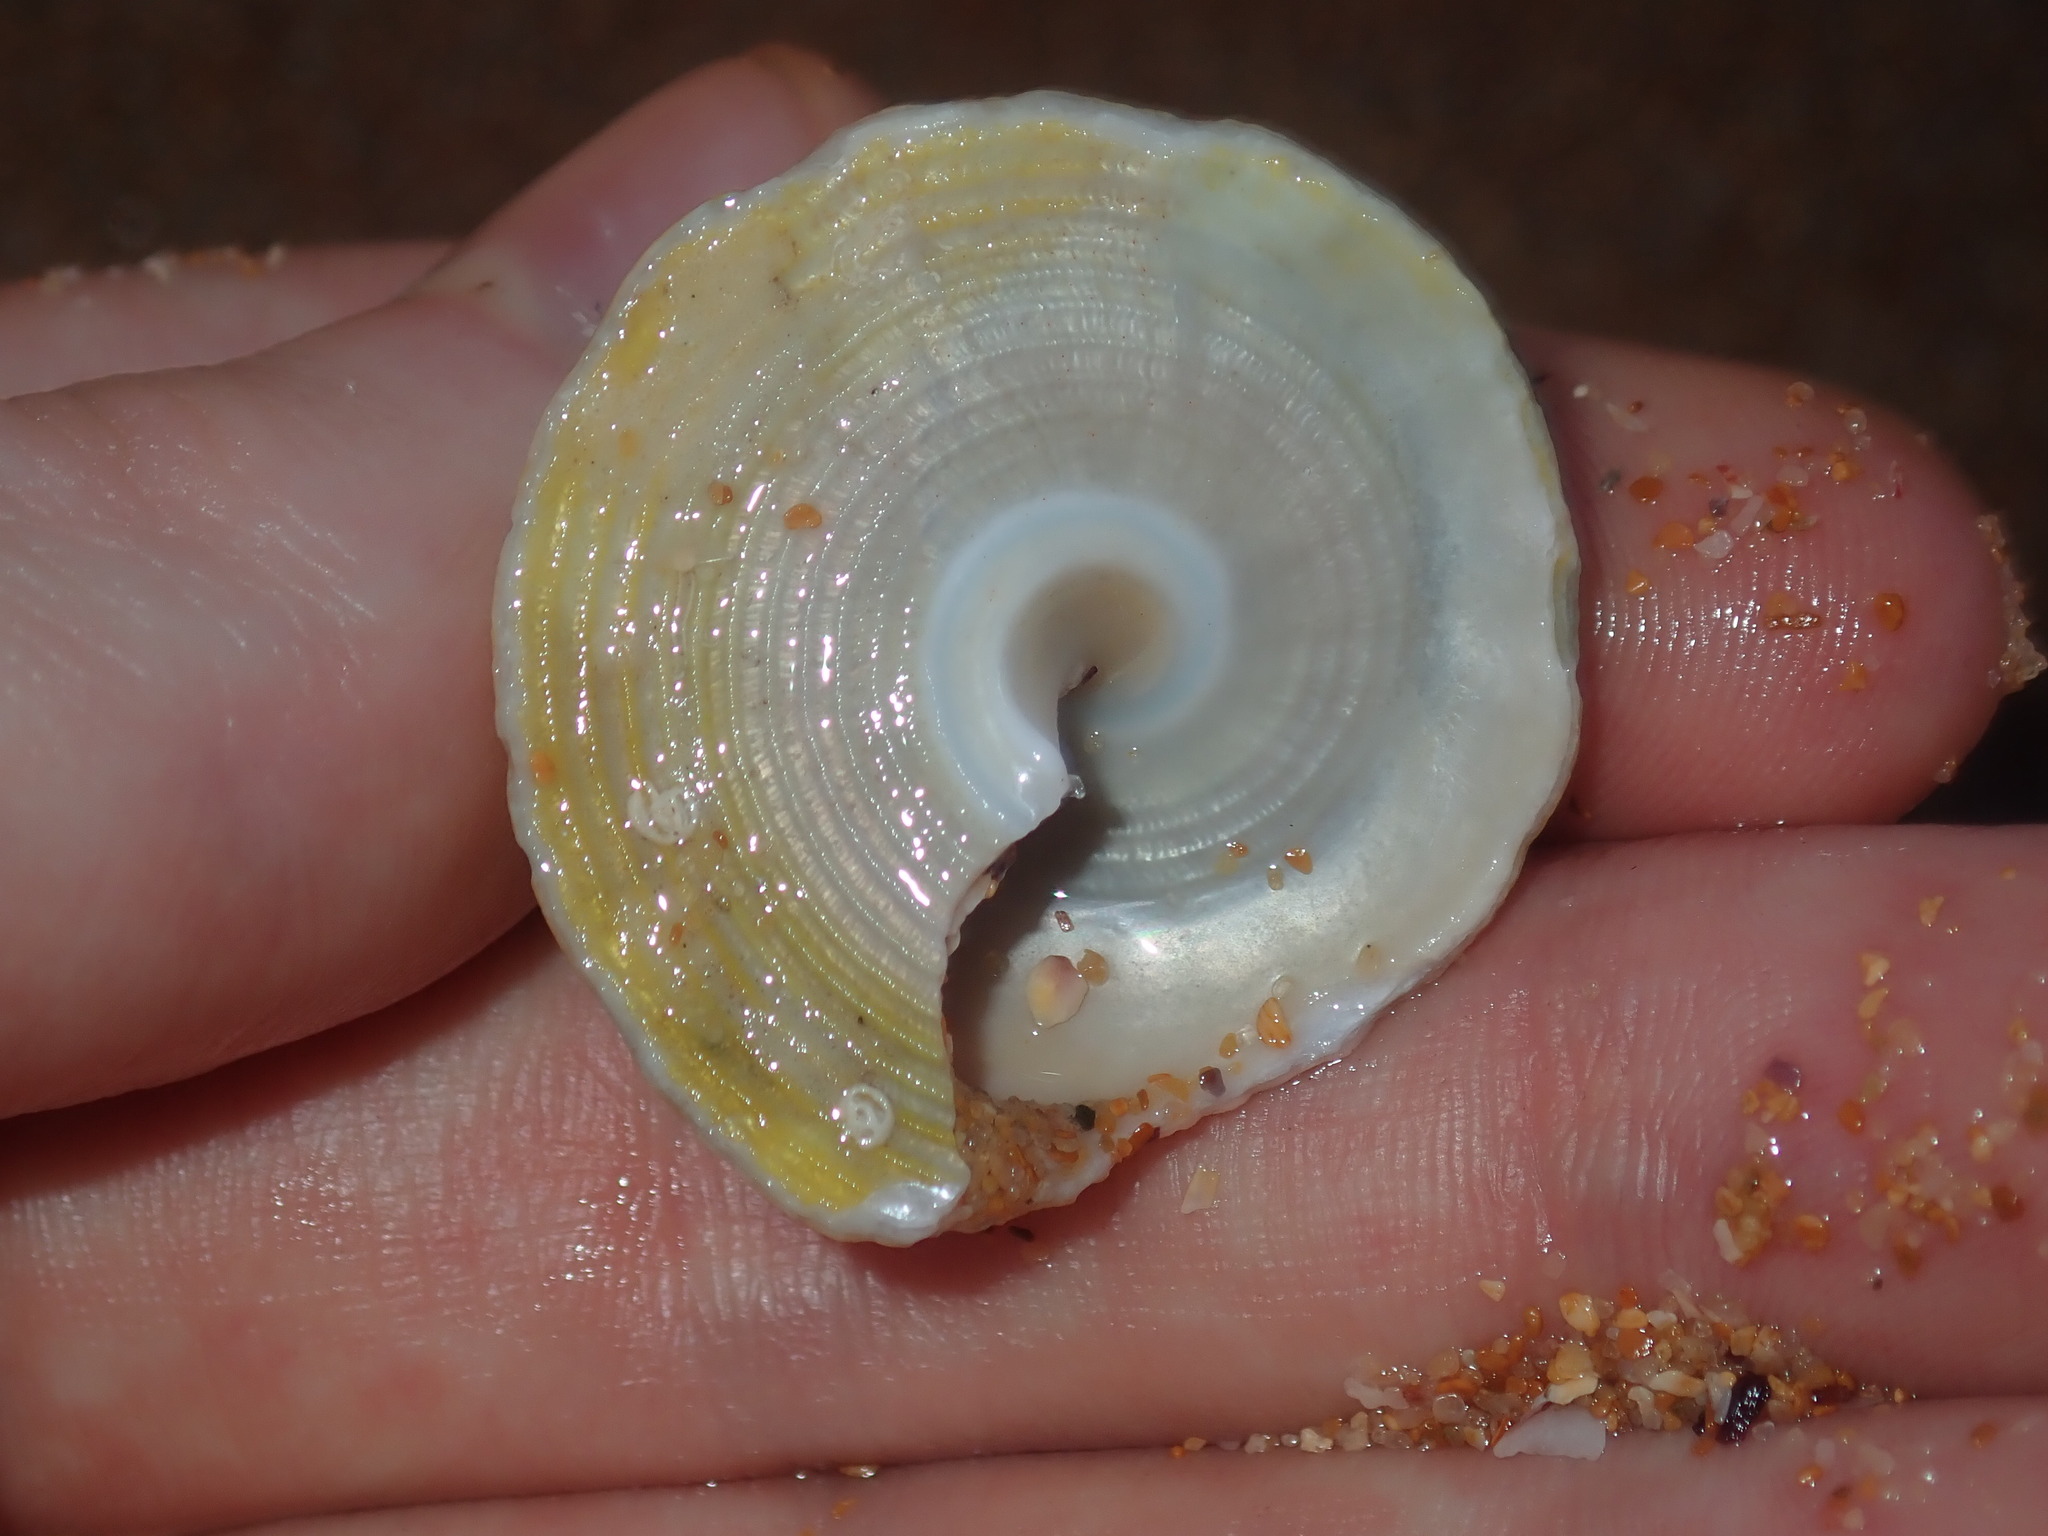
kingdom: Animalia
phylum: Mollusca
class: Gastropoda
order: Trochida
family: Turbinidae
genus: Astralium
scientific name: Astralium tentoriiforme
